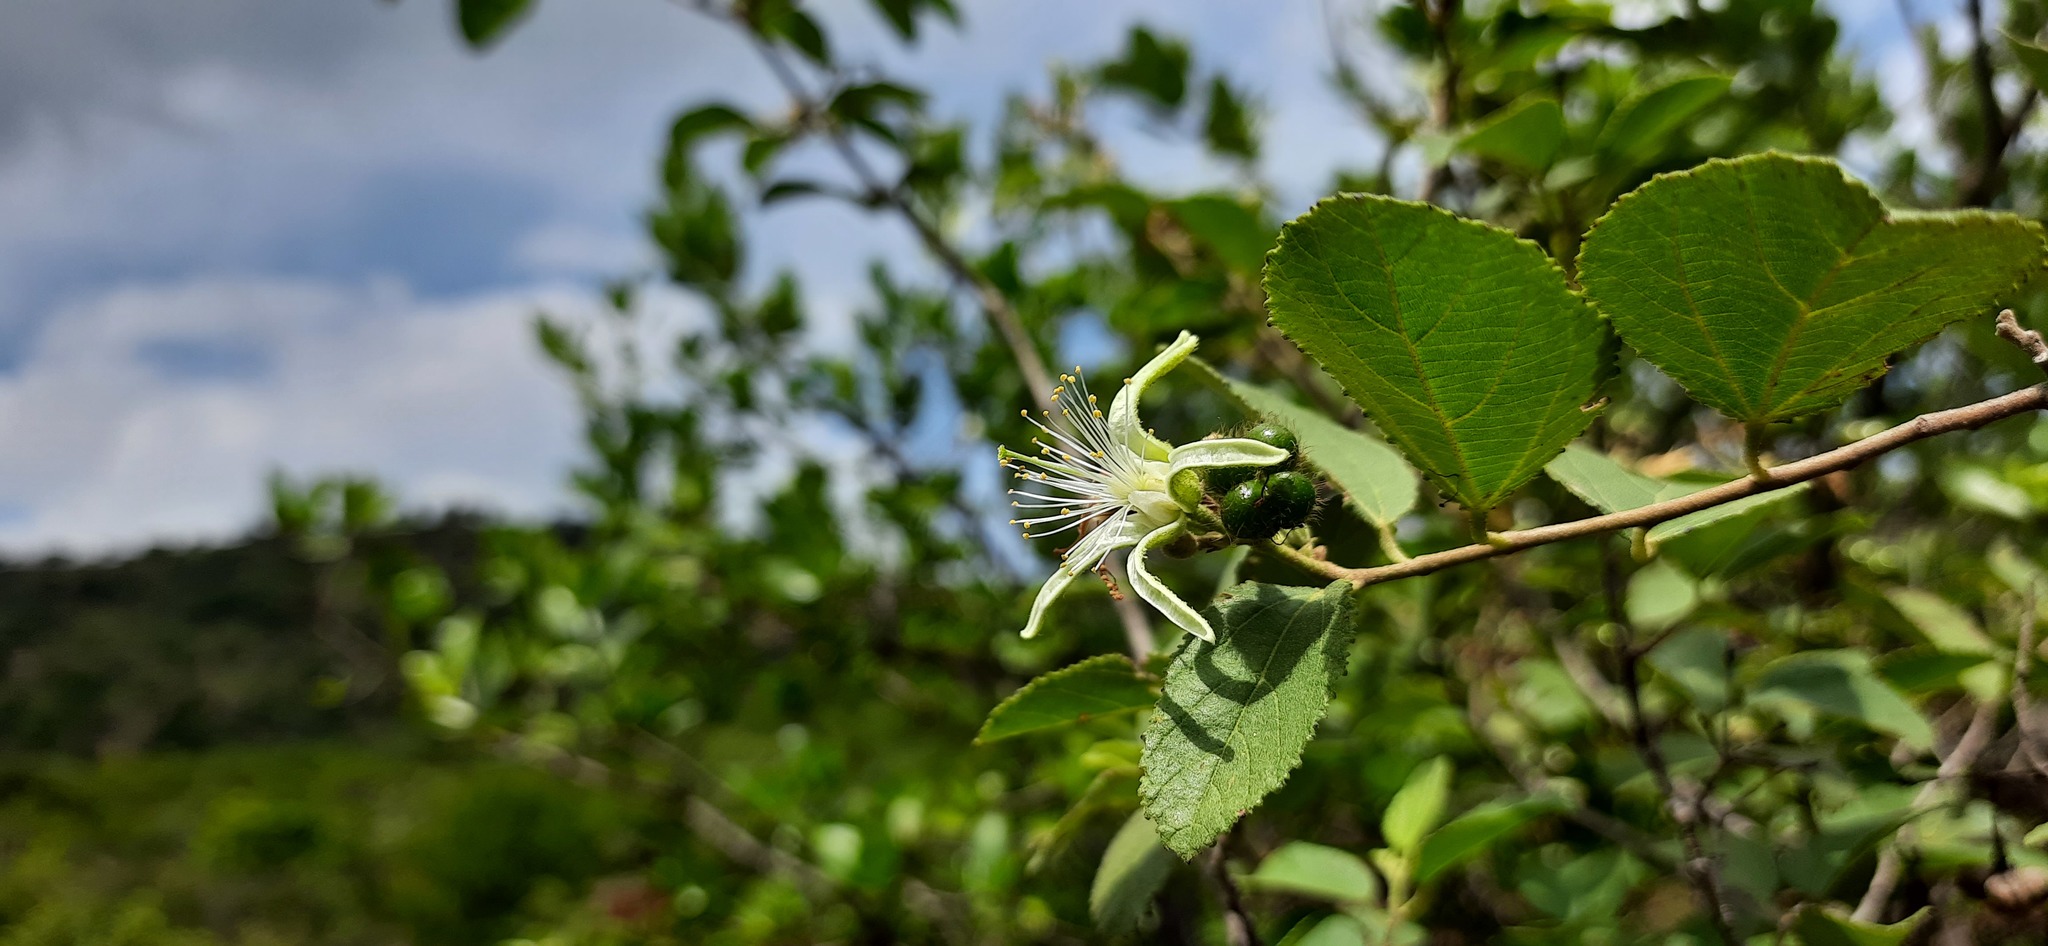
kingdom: Plantae
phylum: Tracheophyta
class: Magnoliopsida
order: Malvales
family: Malvaceae
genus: Grewia
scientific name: Grewia tenax
